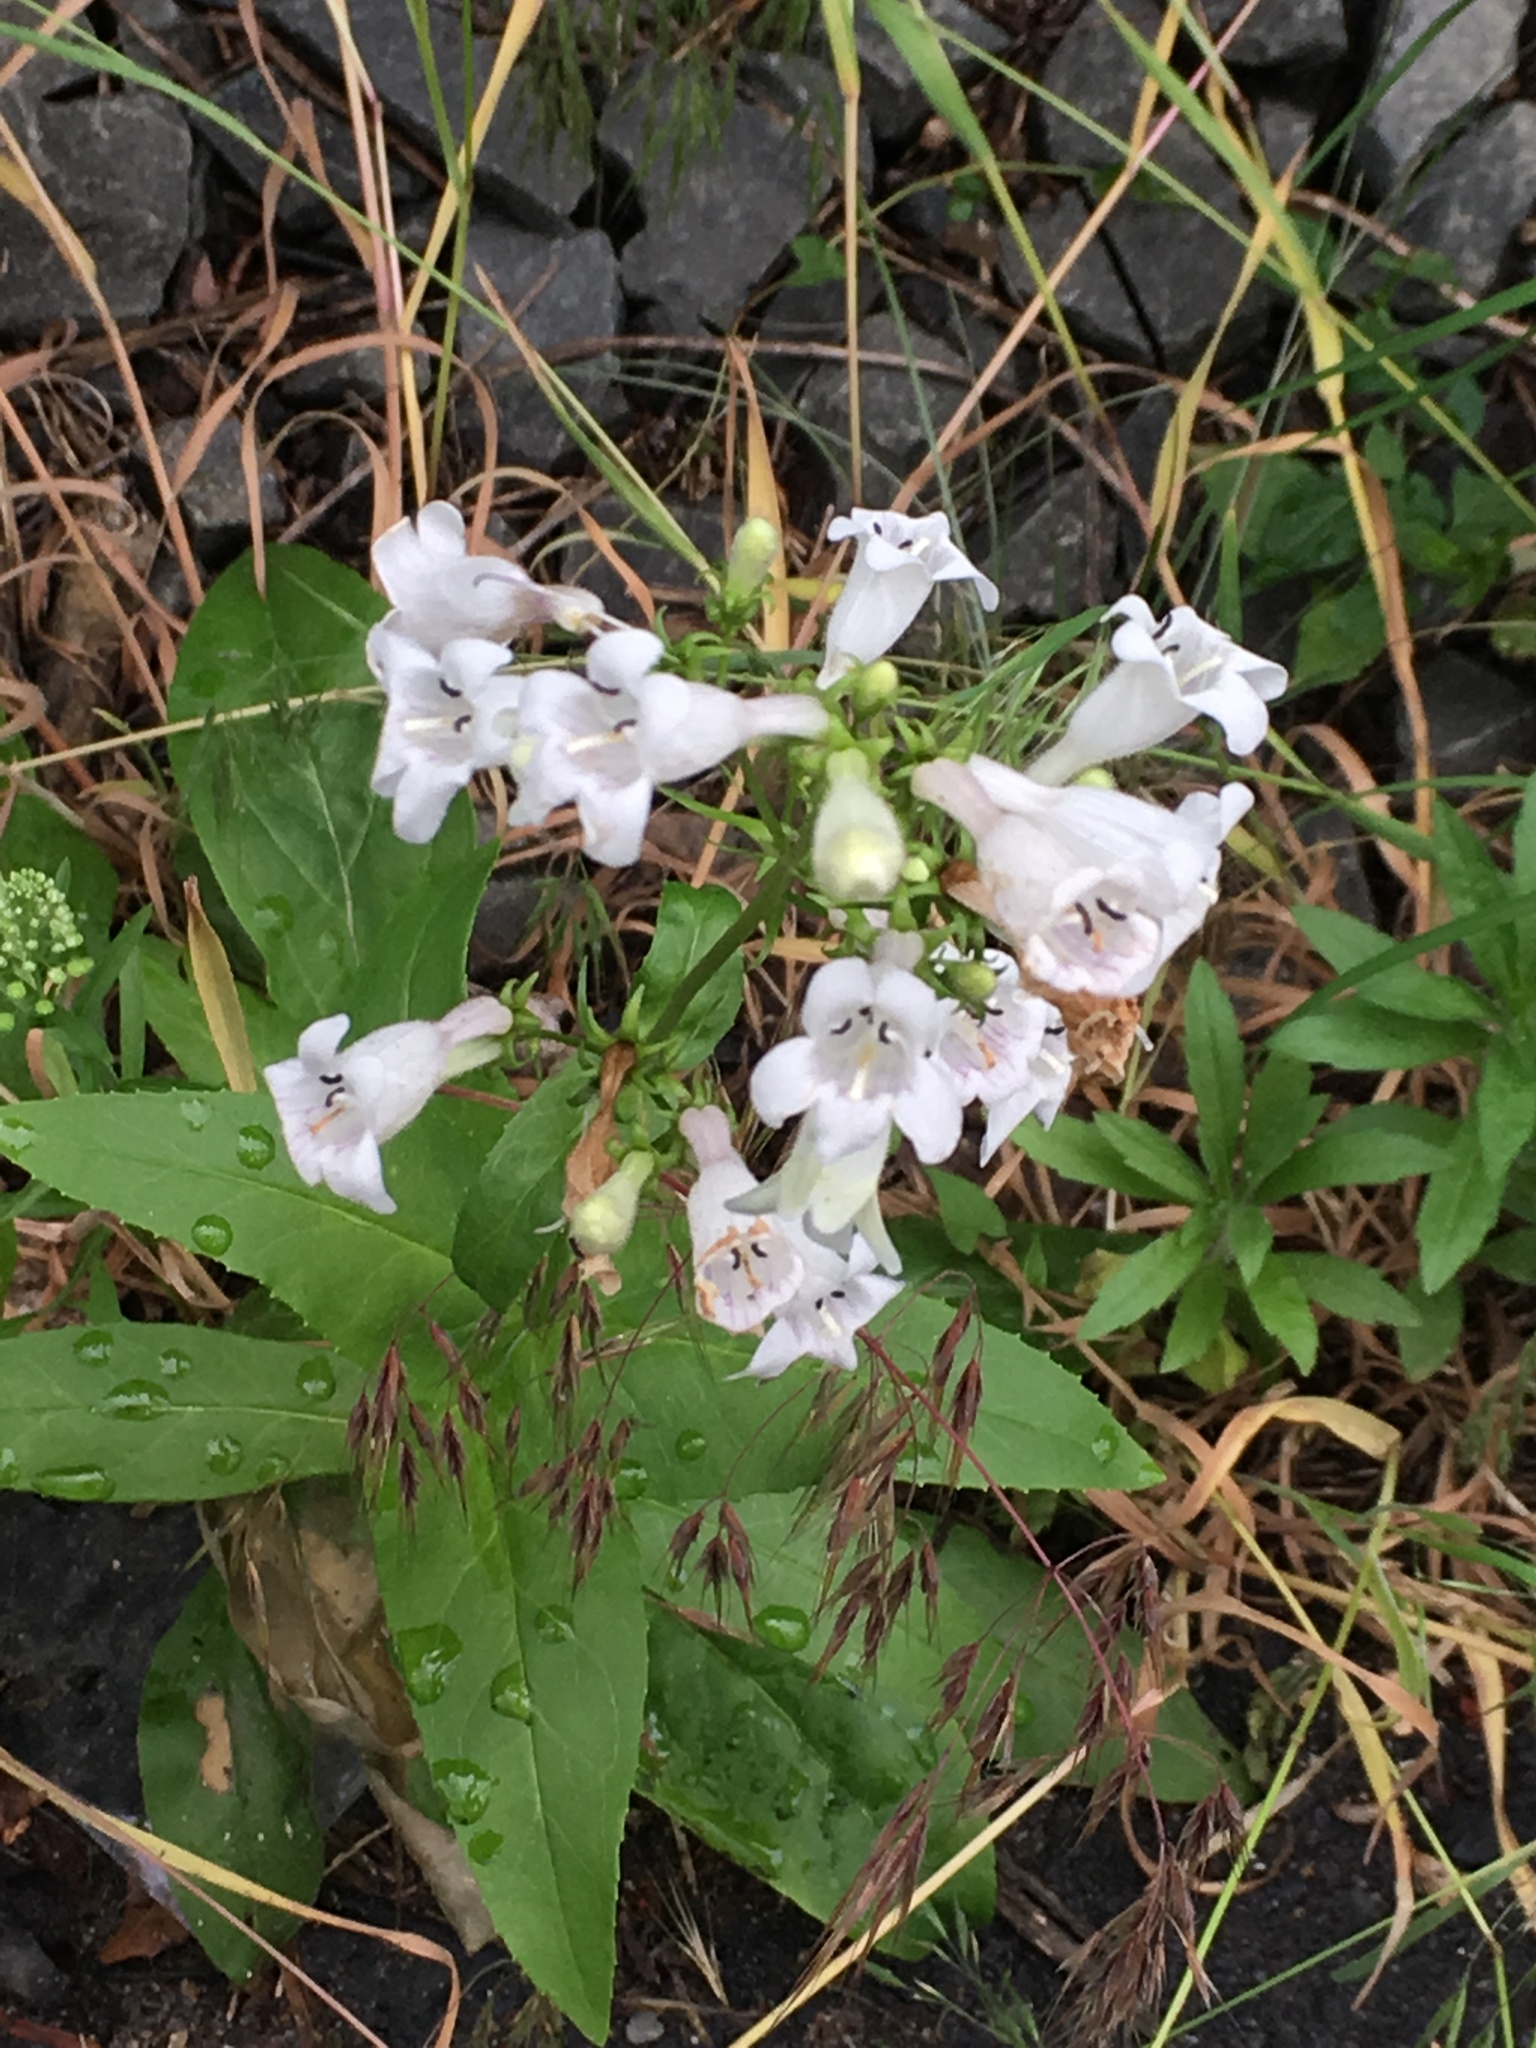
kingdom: Plantae
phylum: Tracheophyta
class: Magnoliopsida
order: Lamiales
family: Plantaginaceae
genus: Penstemon
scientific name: Penstemon digitalis
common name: Foxglove beardtongue
